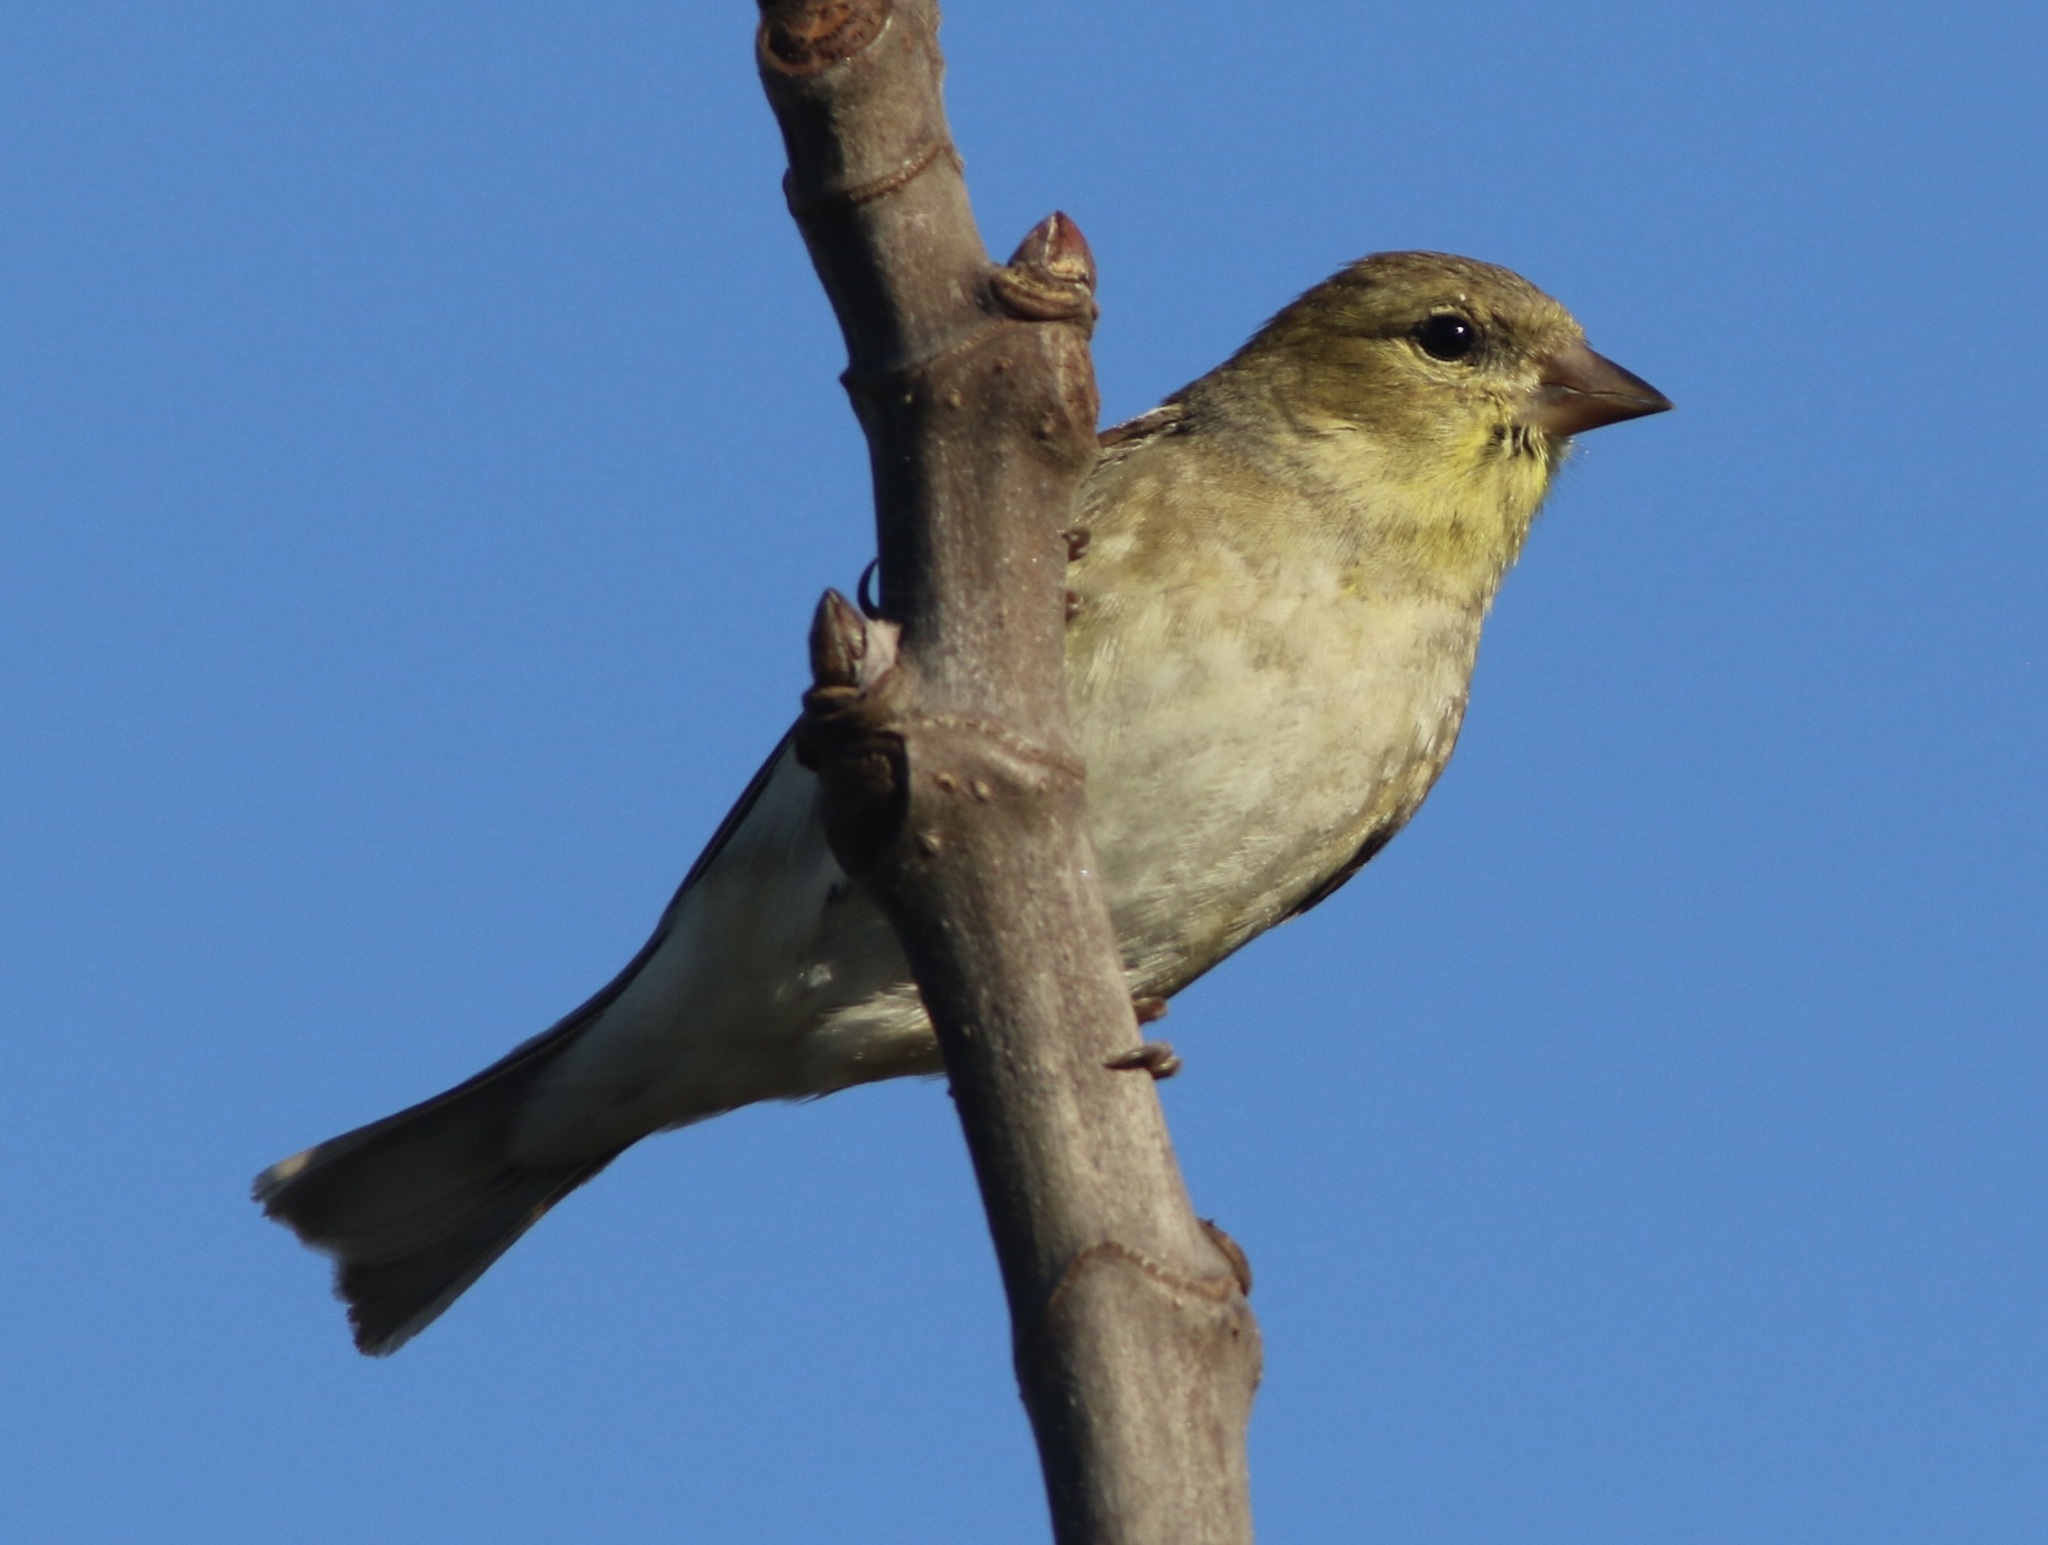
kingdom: Animalia
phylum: Chordata
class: Aves
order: Passeriformes
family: Fringillidae
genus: Spinus
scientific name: Spinus tristis
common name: American goldfinch
